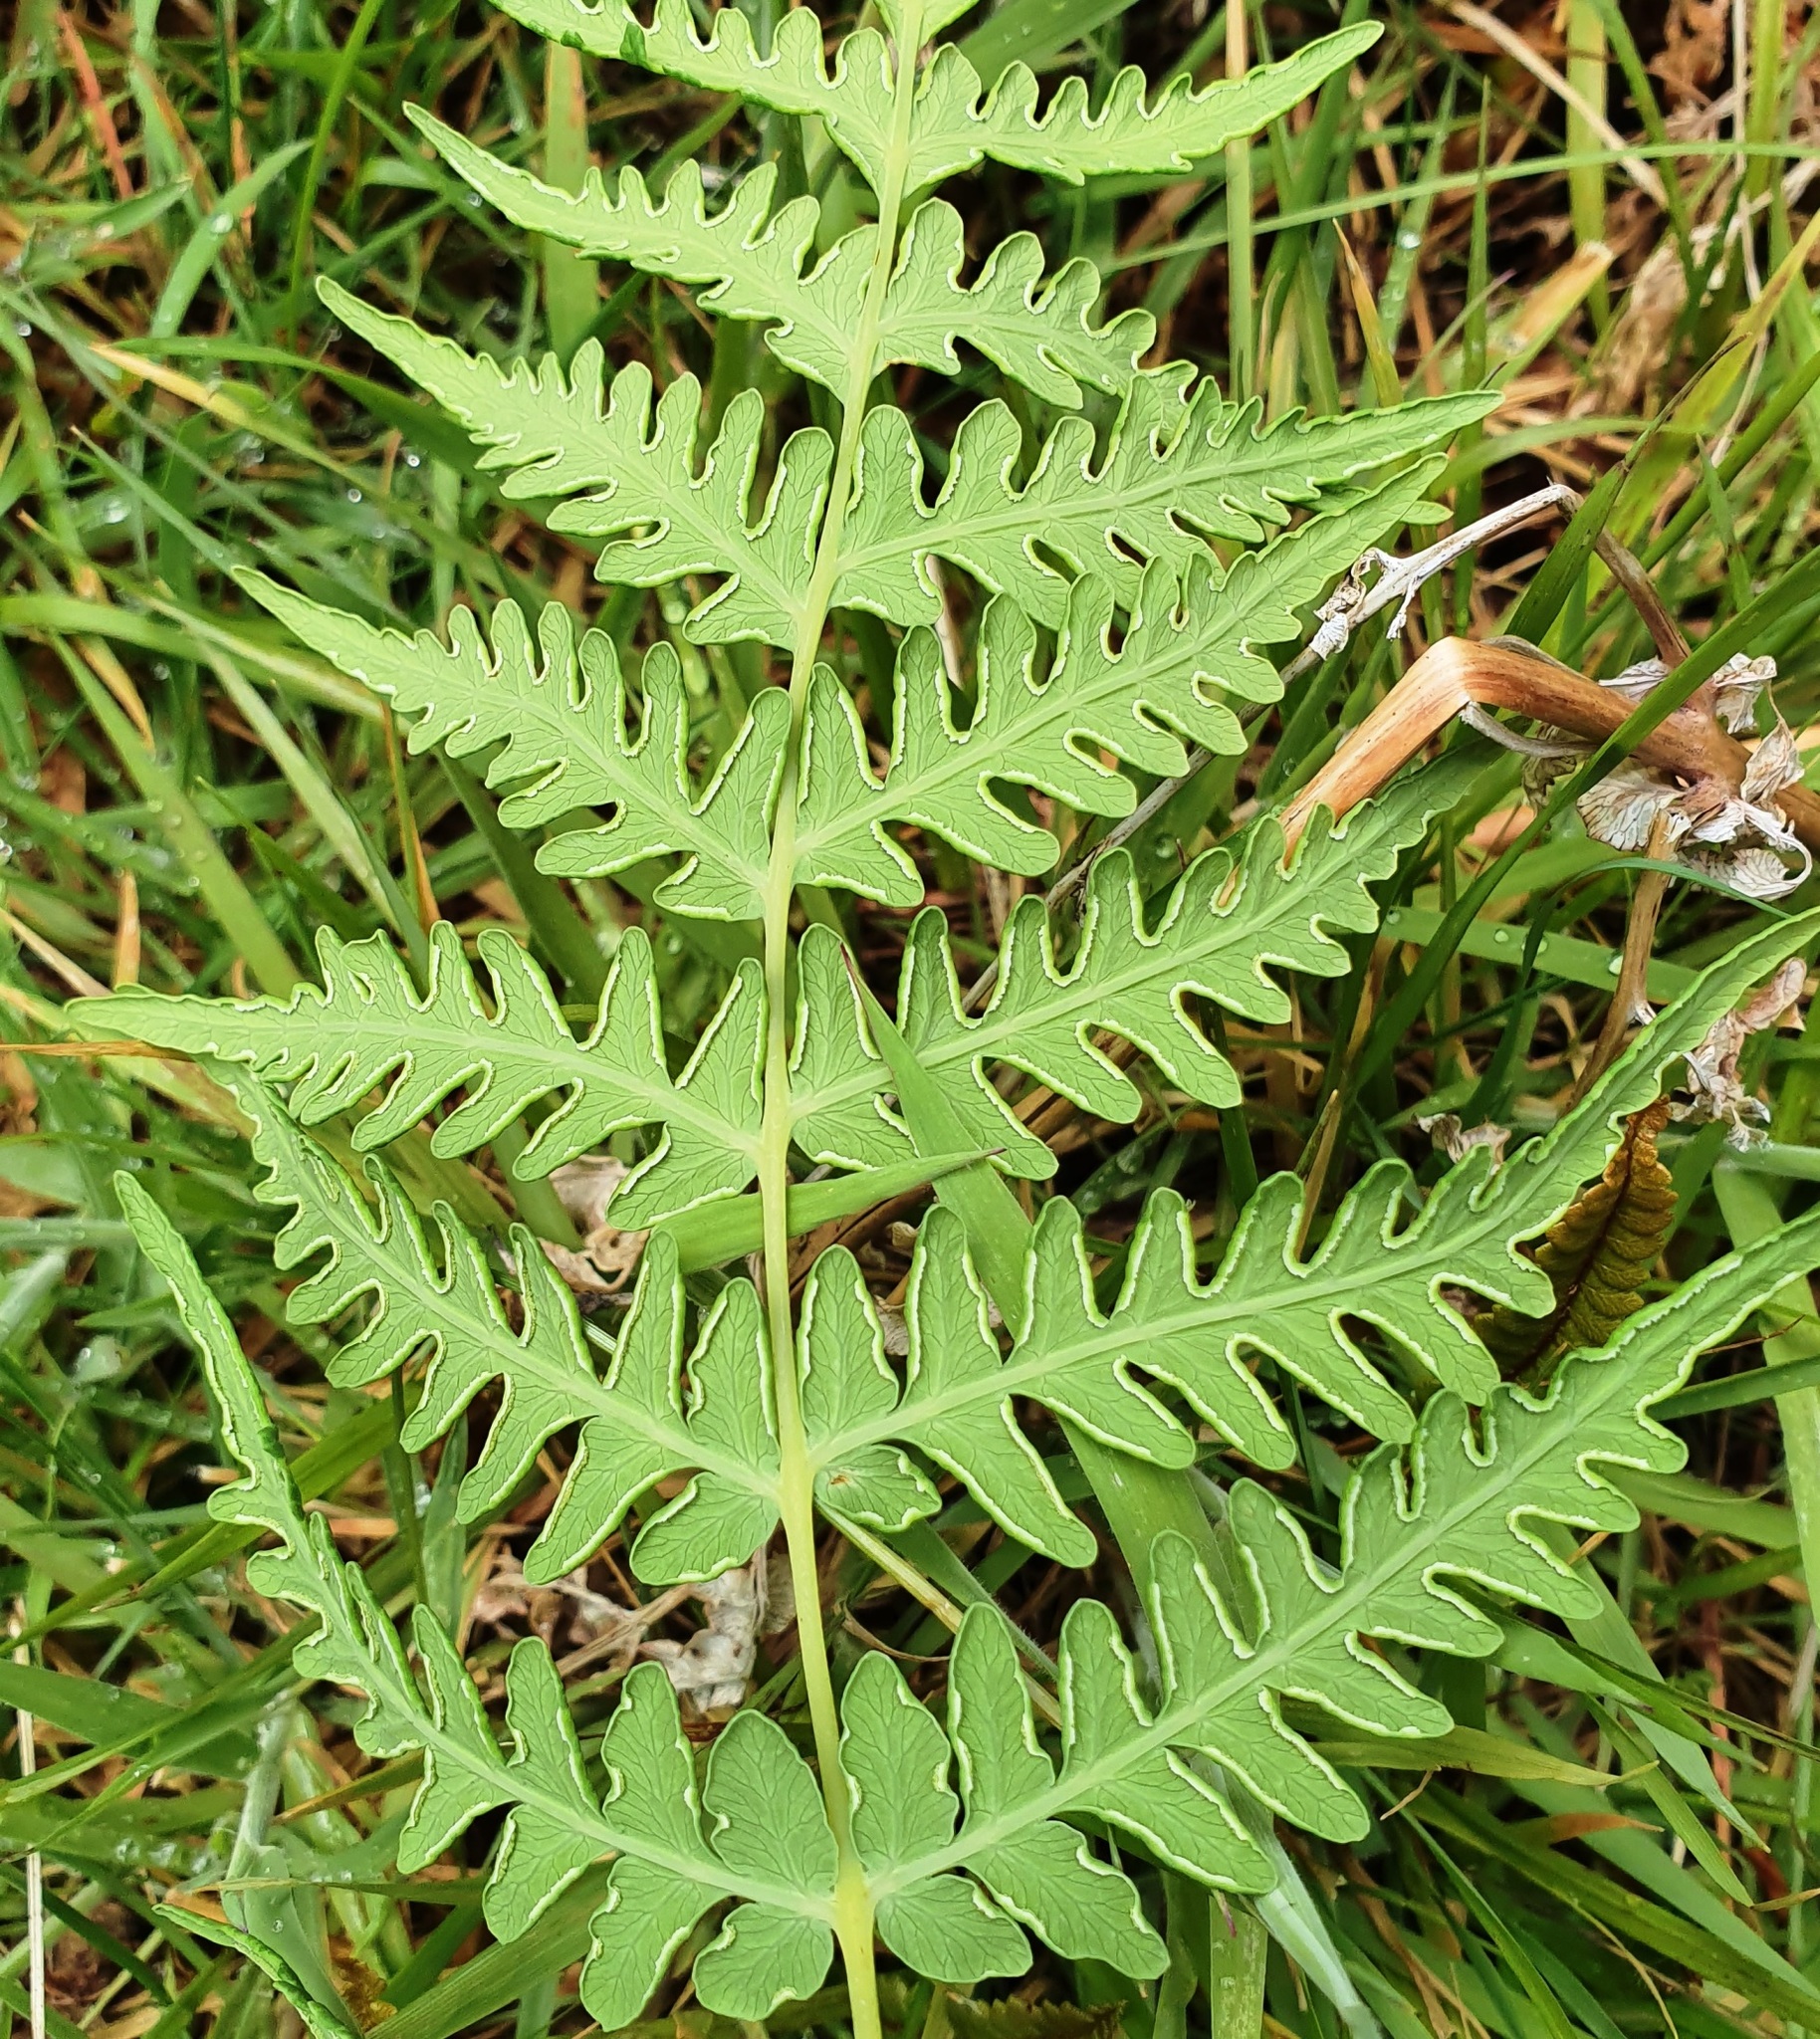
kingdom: Plantae
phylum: Tracheophyta
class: Polypodiopsida
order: Polypodiales
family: Dennstaedtiaceae
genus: Histiopteris
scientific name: Histiopteris incisa
